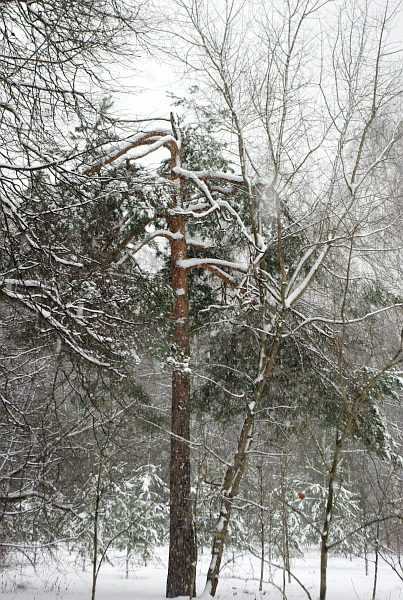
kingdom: Plantae
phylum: Tracheophyta
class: Pinopsida
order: Pinales
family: Pinaceae
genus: Pinus
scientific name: Pinus sylvestris
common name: Scots pine
